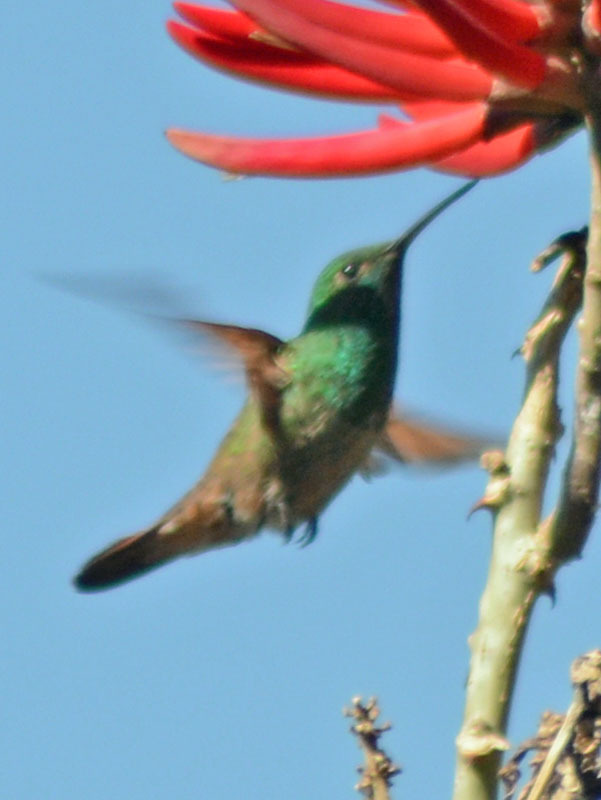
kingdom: Animalia
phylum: Chordata
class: Aves
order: Apodiformes
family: Trochilidae
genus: Saucerottia
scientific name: Saucerottia beryllina
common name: Berylline hummingbird
